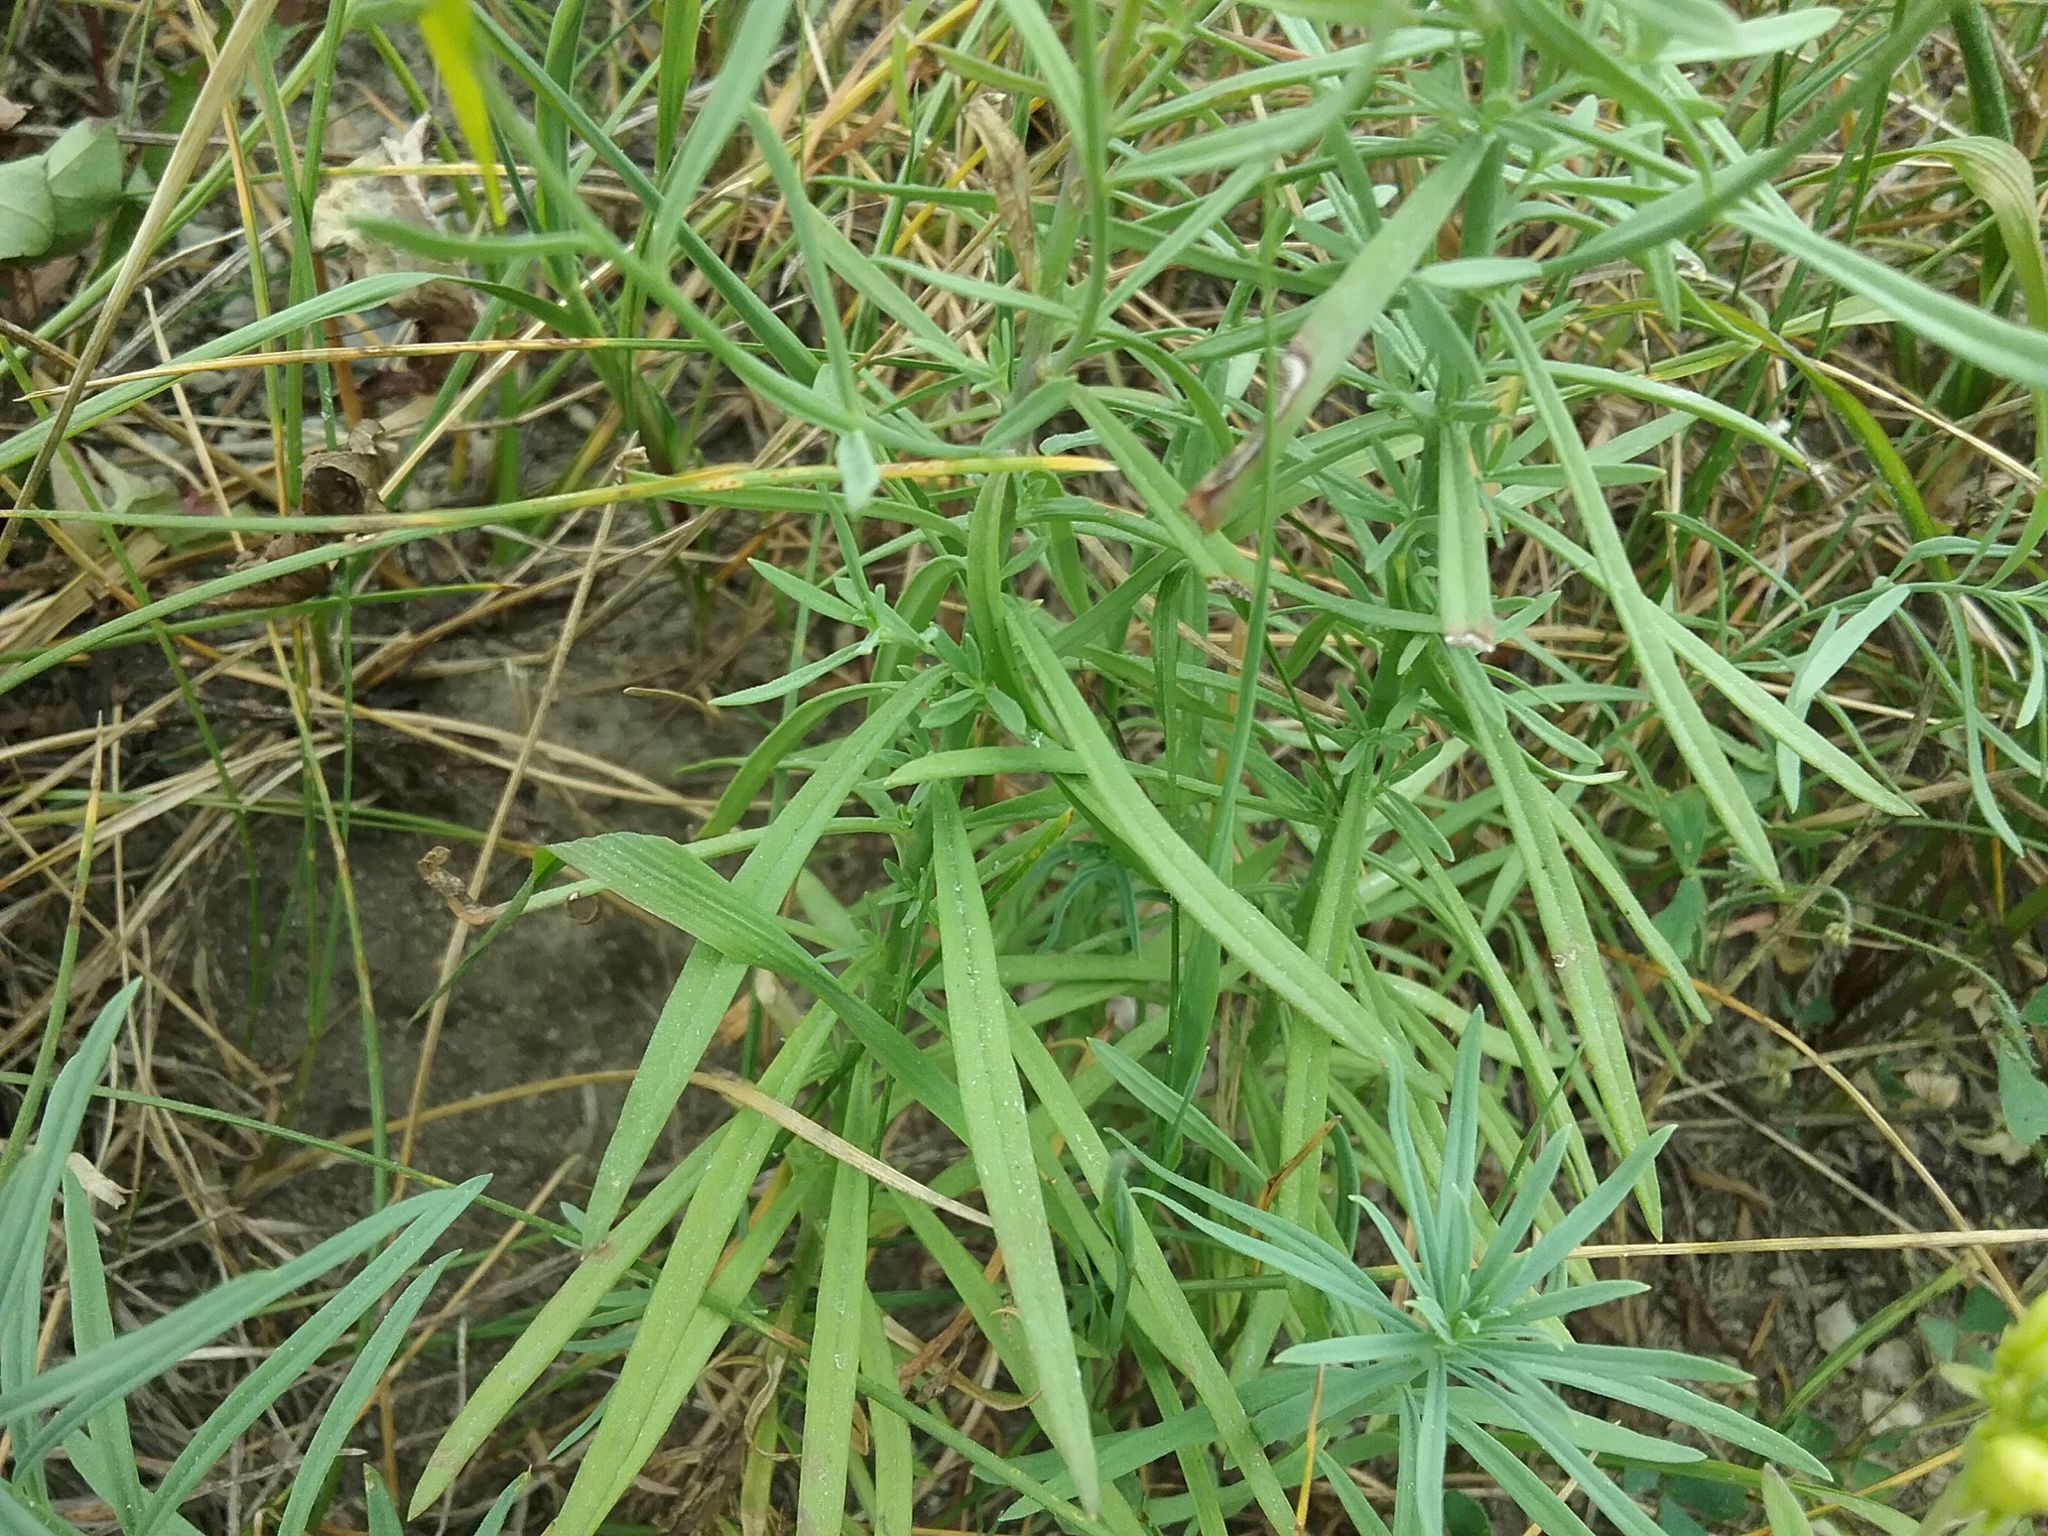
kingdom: Plantae
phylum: Tracheophyta
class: Magnoliopsida
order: Lamiales
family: Plantaginaceae
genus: Linaria
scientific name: Linaria vulgaris
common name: Butter and eggs
